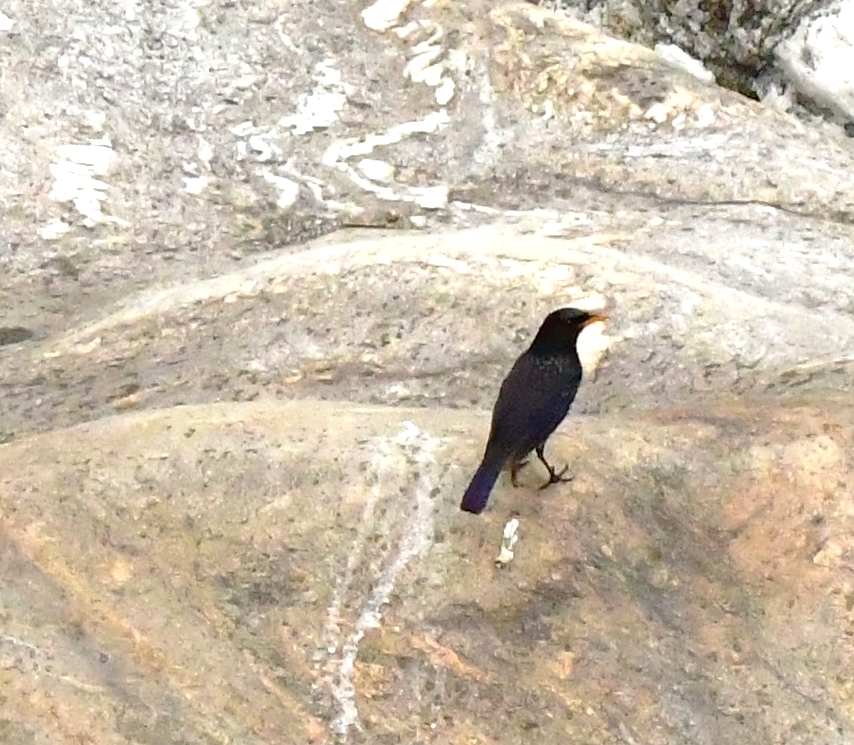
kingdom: Animalia
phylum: Chordata
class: Aves
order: Passeriformes
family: Muscicapidae
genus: Myophonus
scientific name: Myophonus caeruleus
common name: Blue whistling-thrush
